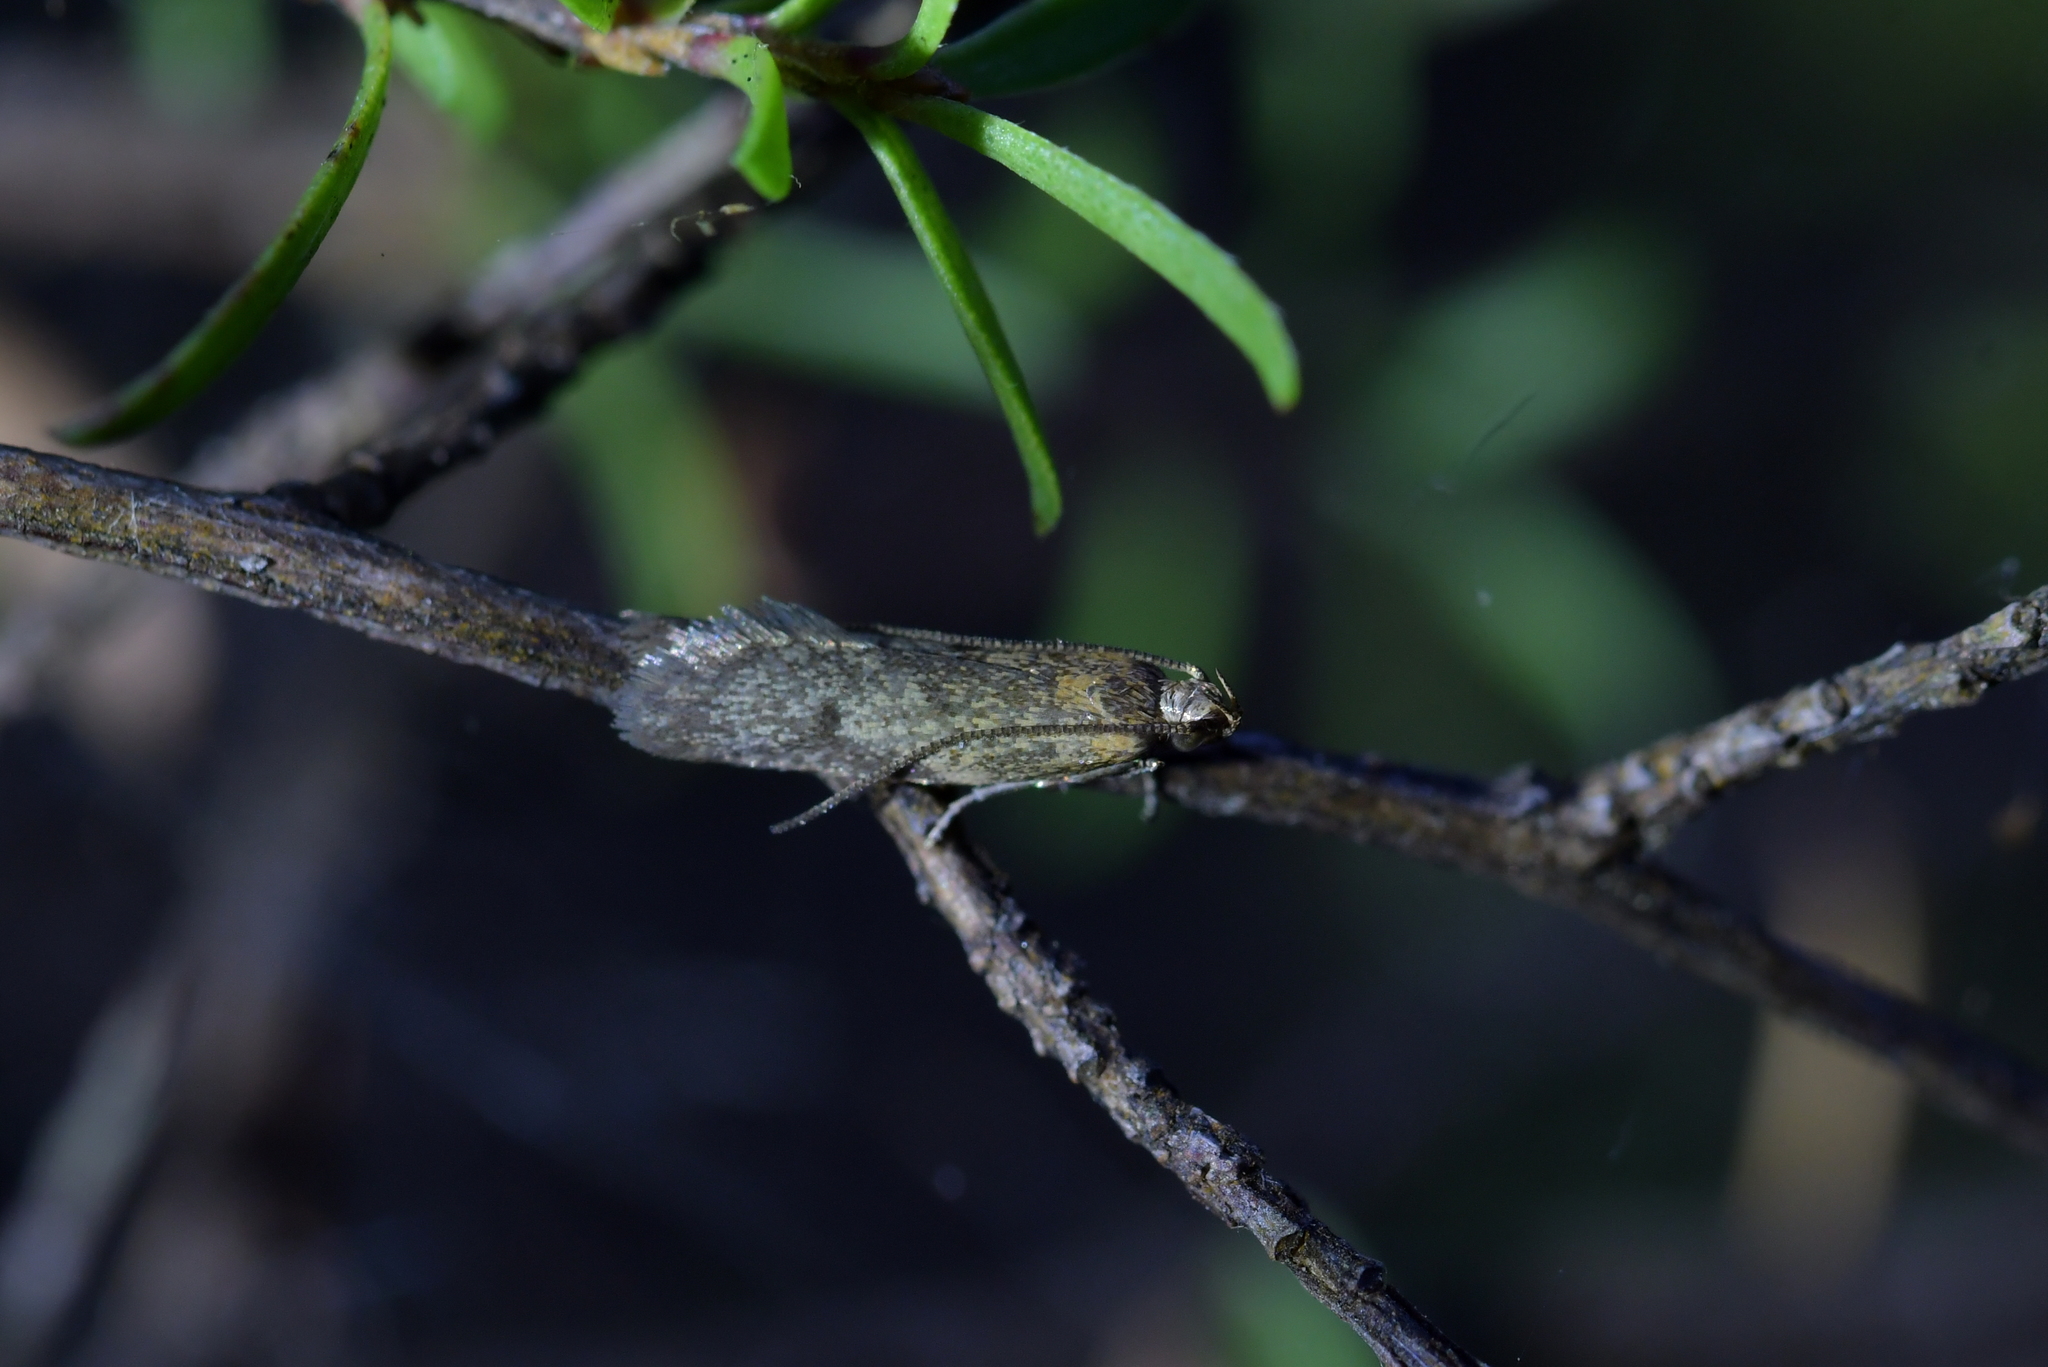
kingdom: Animalia
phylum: Arthropoda
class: Insecta
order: Lepidoptera
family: Oecophoridae
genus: Gymnobathra
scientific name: Gymnobathra tholodella
